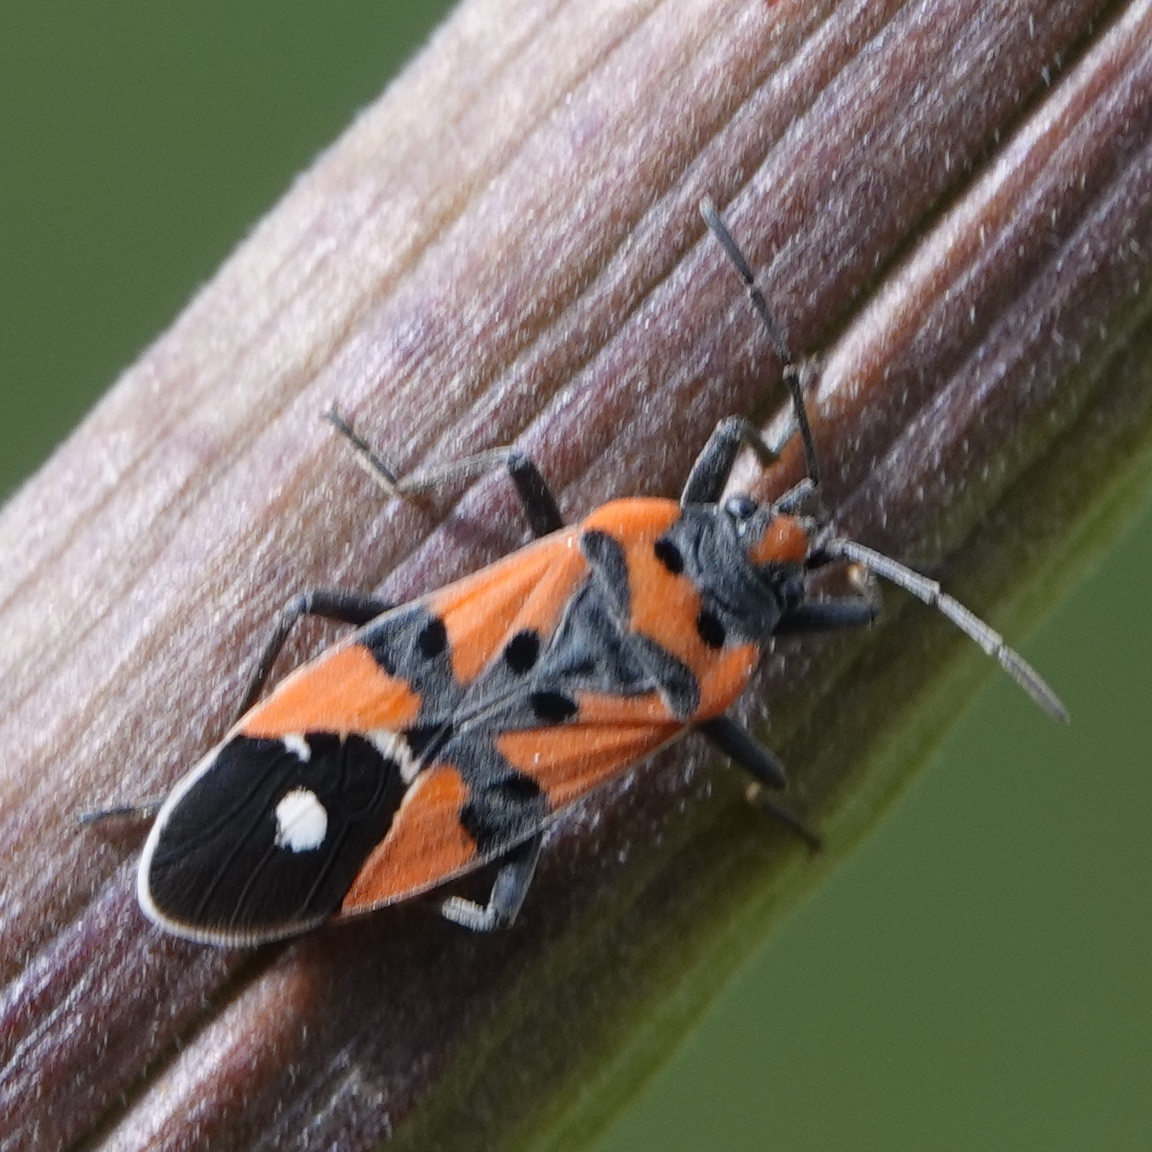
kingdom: Animalia
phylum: Arthropoda
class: Insecta
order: Hemiptera
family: Lygaeidae
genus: Lygaeus
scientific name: Lygaeus equestris
